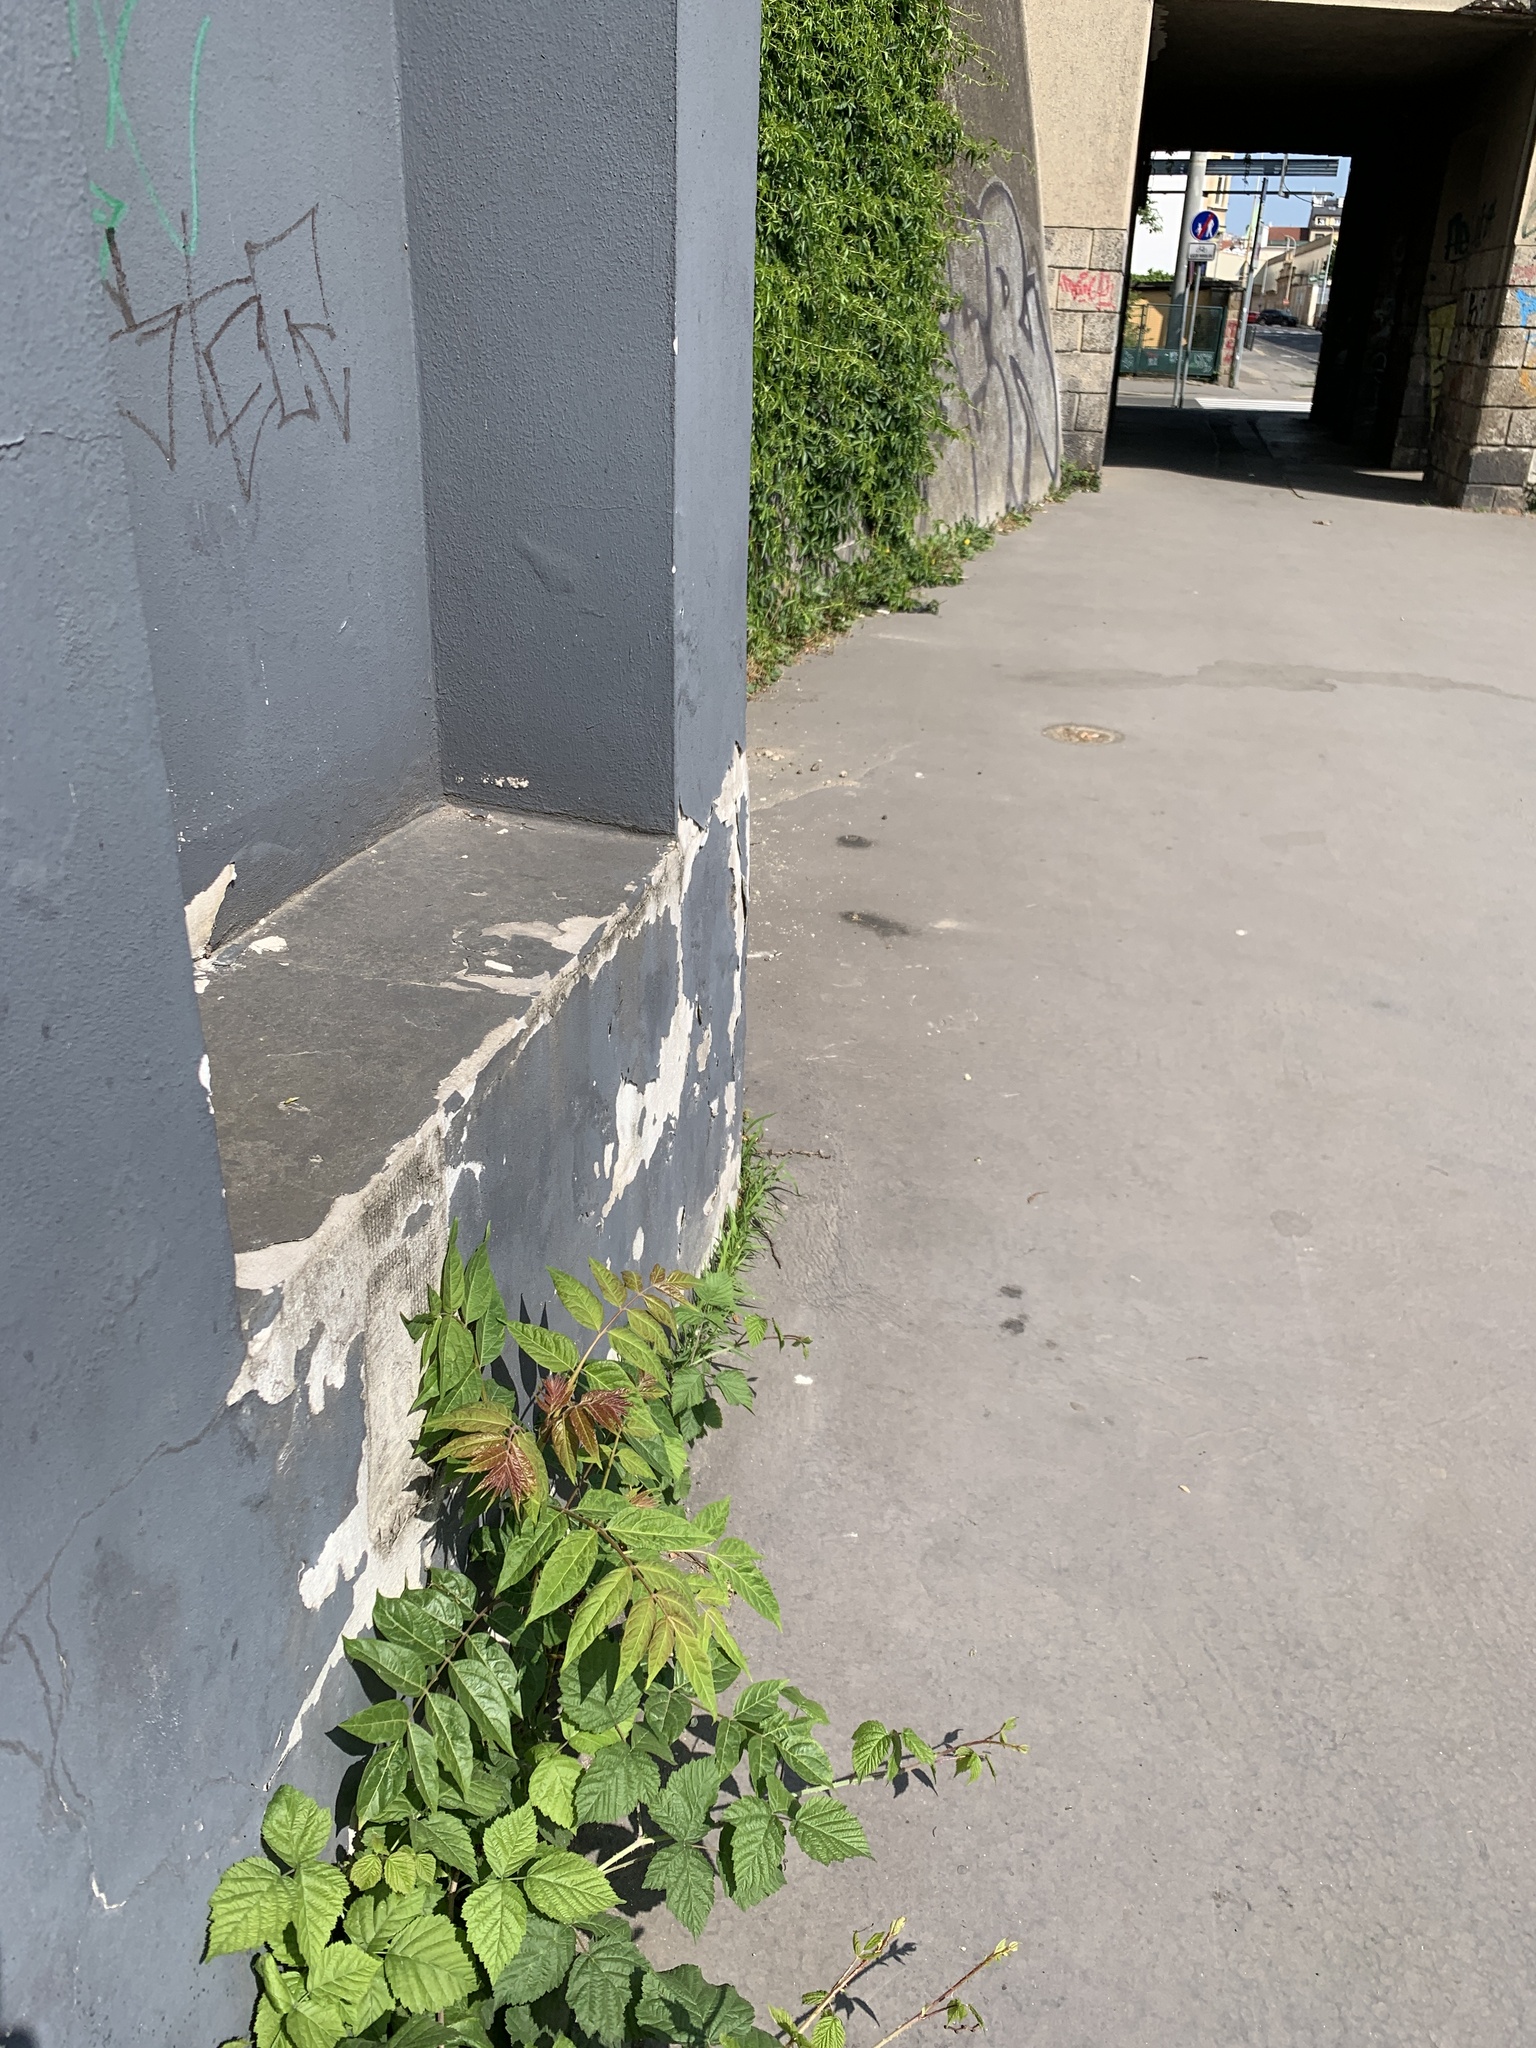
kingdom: Plantae
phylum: Tracheophyta
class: Magnoliopsida
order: Sapindales
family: Simaroubaceae
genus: Ailanthus
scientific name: Ailanthus altissima
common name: Tree-of-heaven
